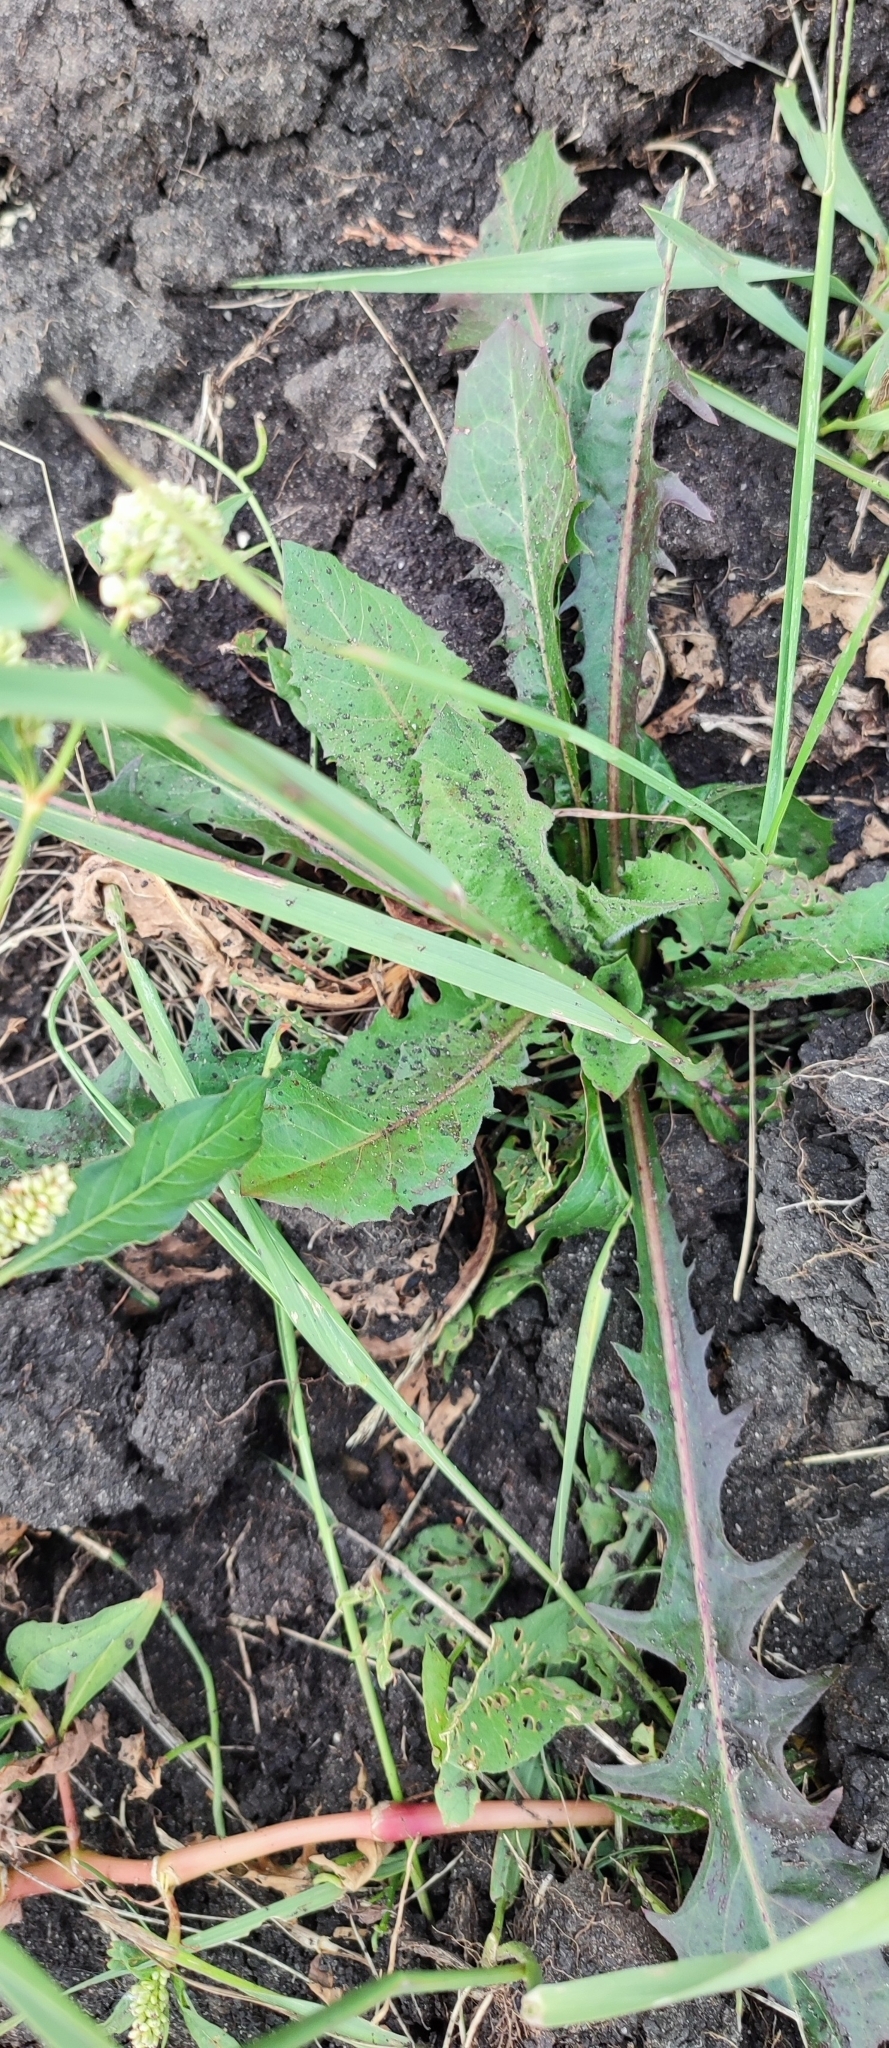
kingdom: Plantae
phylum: Tracheophyta
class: Magnoliopsida
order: Asterales
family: Asteraceae
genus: Taraxacum
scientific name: Taraxacum officinale
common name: Common dandelion
